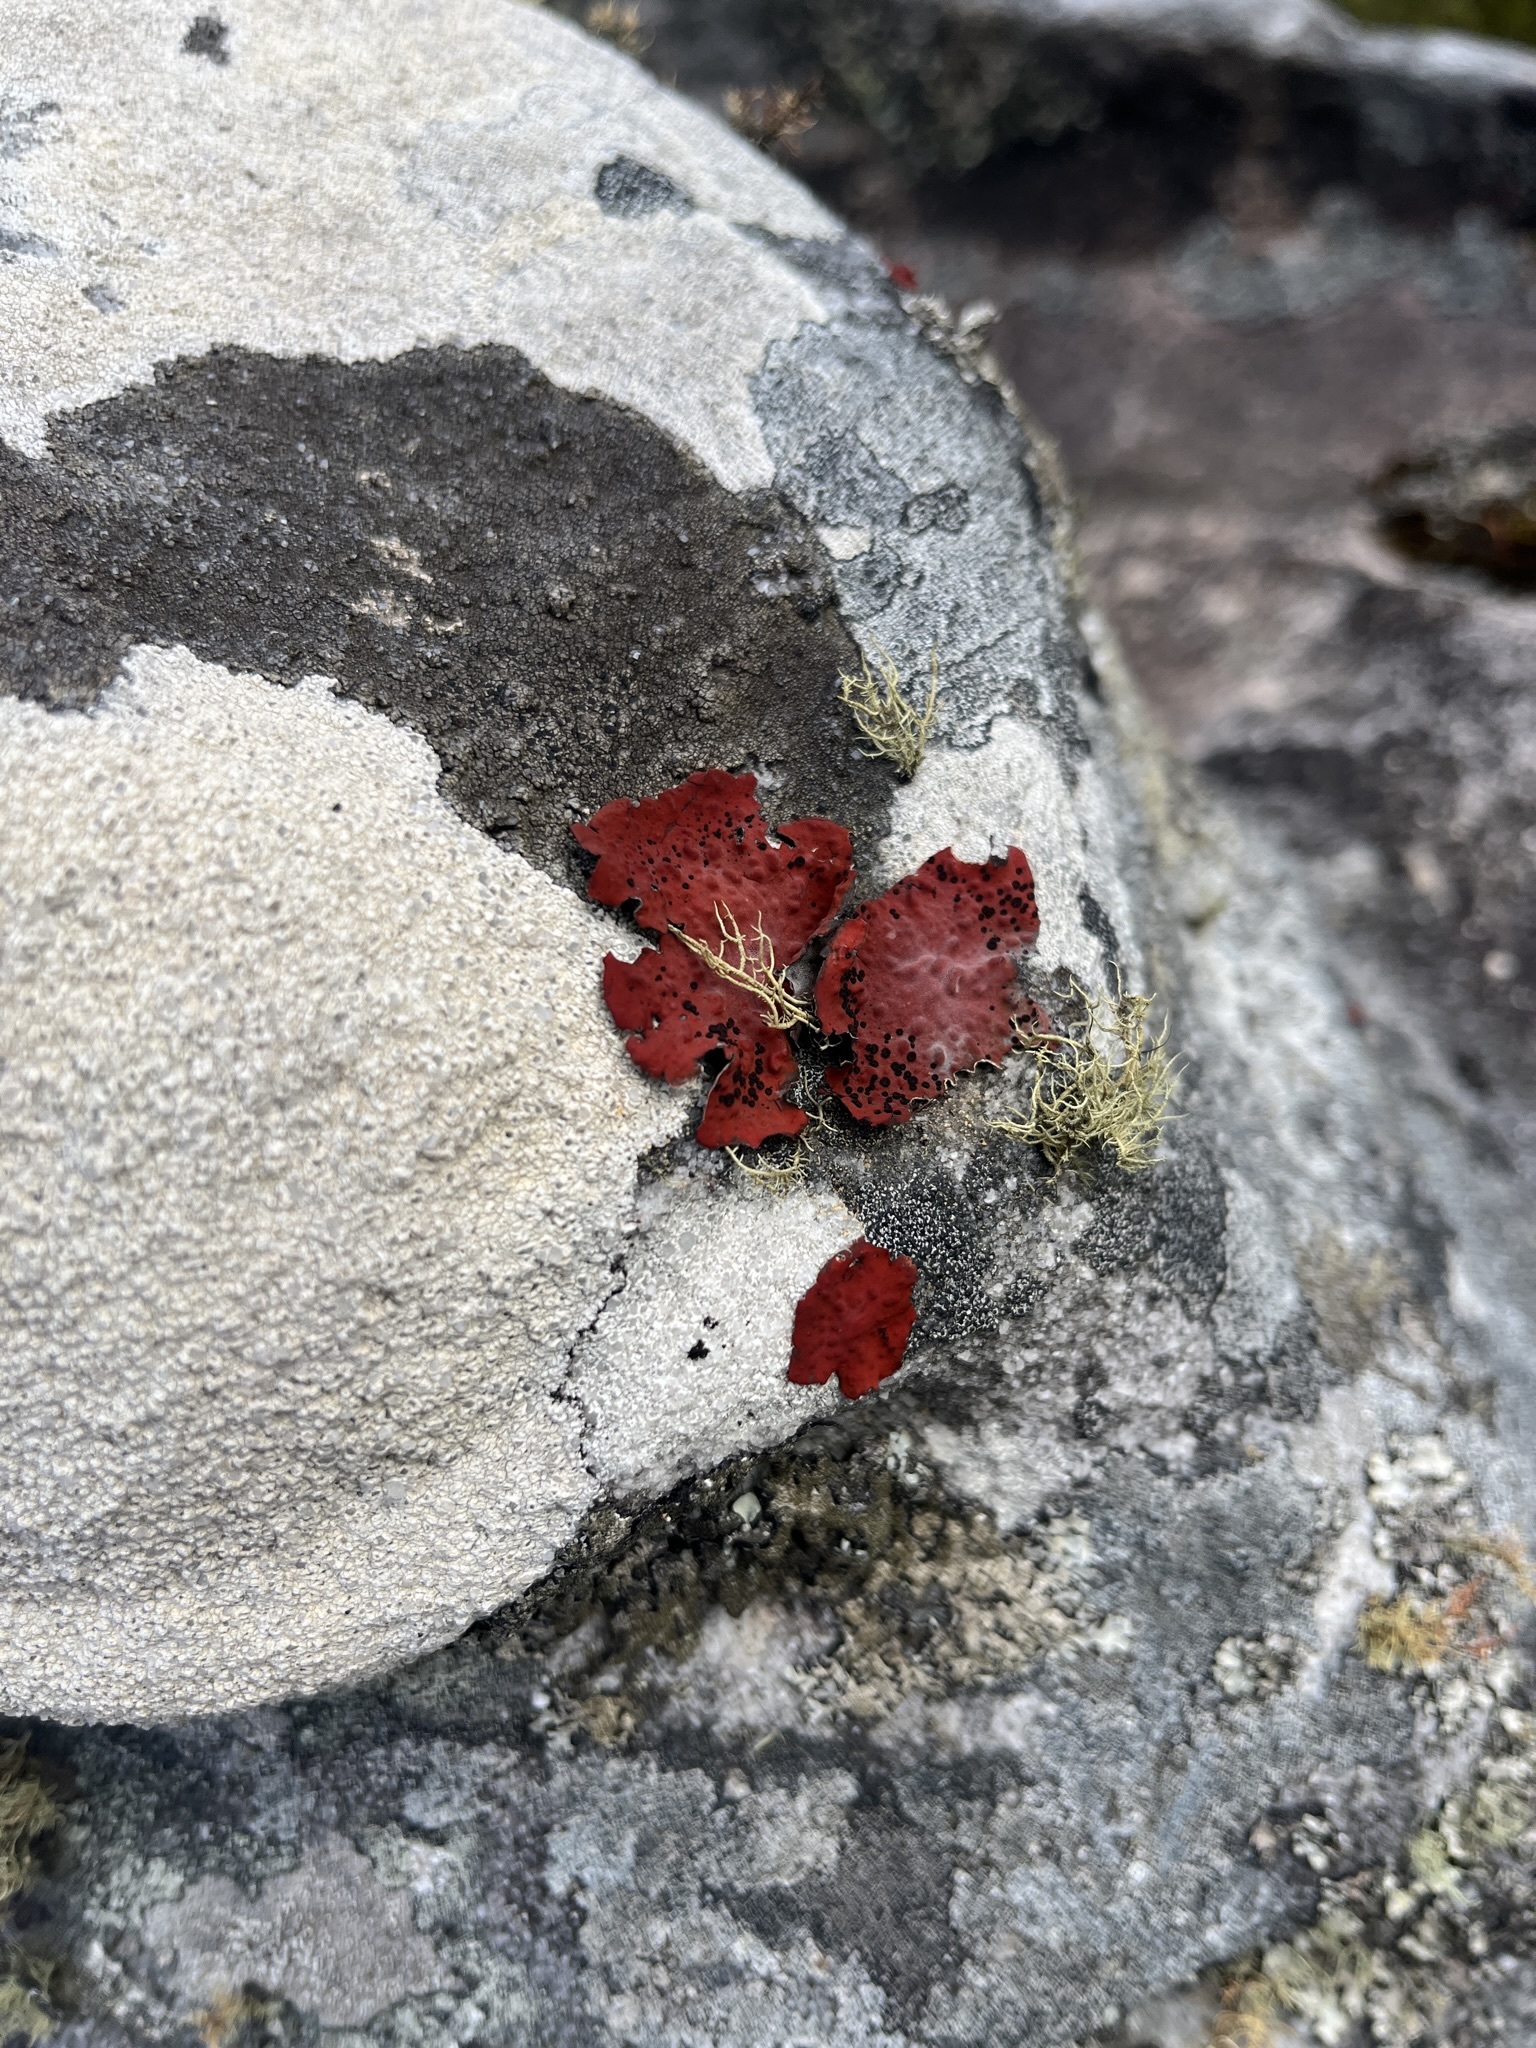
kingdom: Fungi
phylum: Ascomycota
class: Lecanoromycetes
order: Umbilicariales
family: Umbilicariaceae
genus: Lasallia
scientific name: Lasallia rubiginosa
